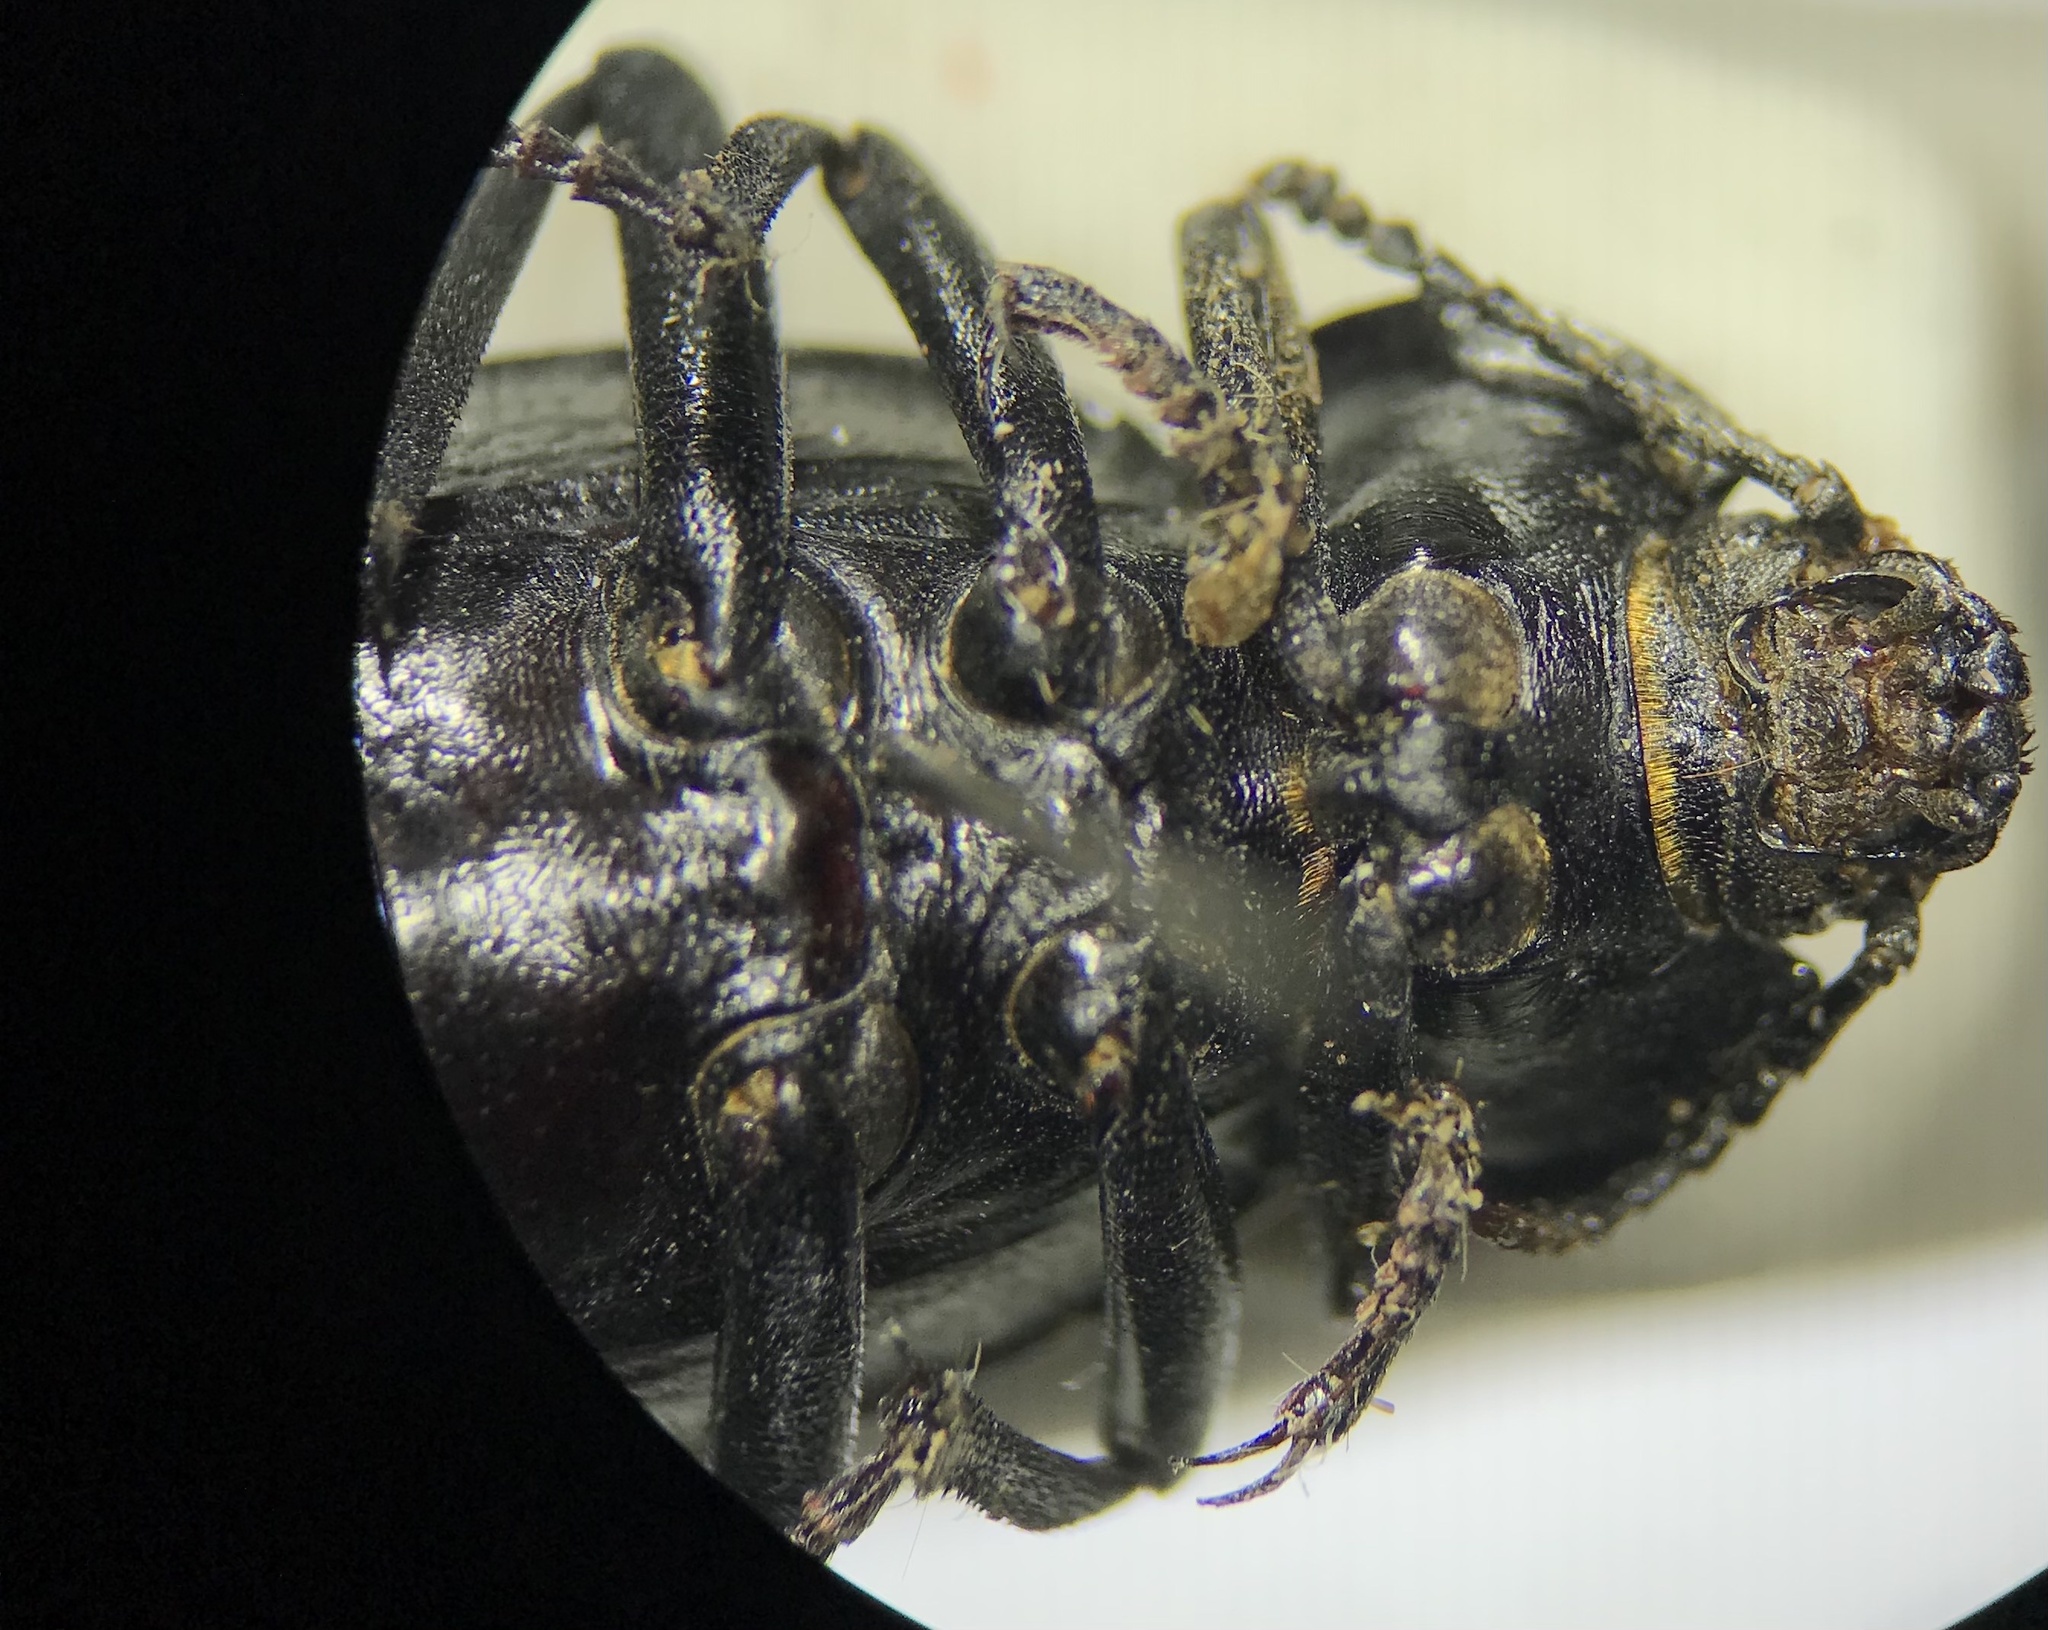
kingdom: Animalia
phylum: Arthropoda
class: Insecta
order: Coleoptera
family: Tenebrionidae
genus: Eleodes
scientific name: Eleodes suturalis
